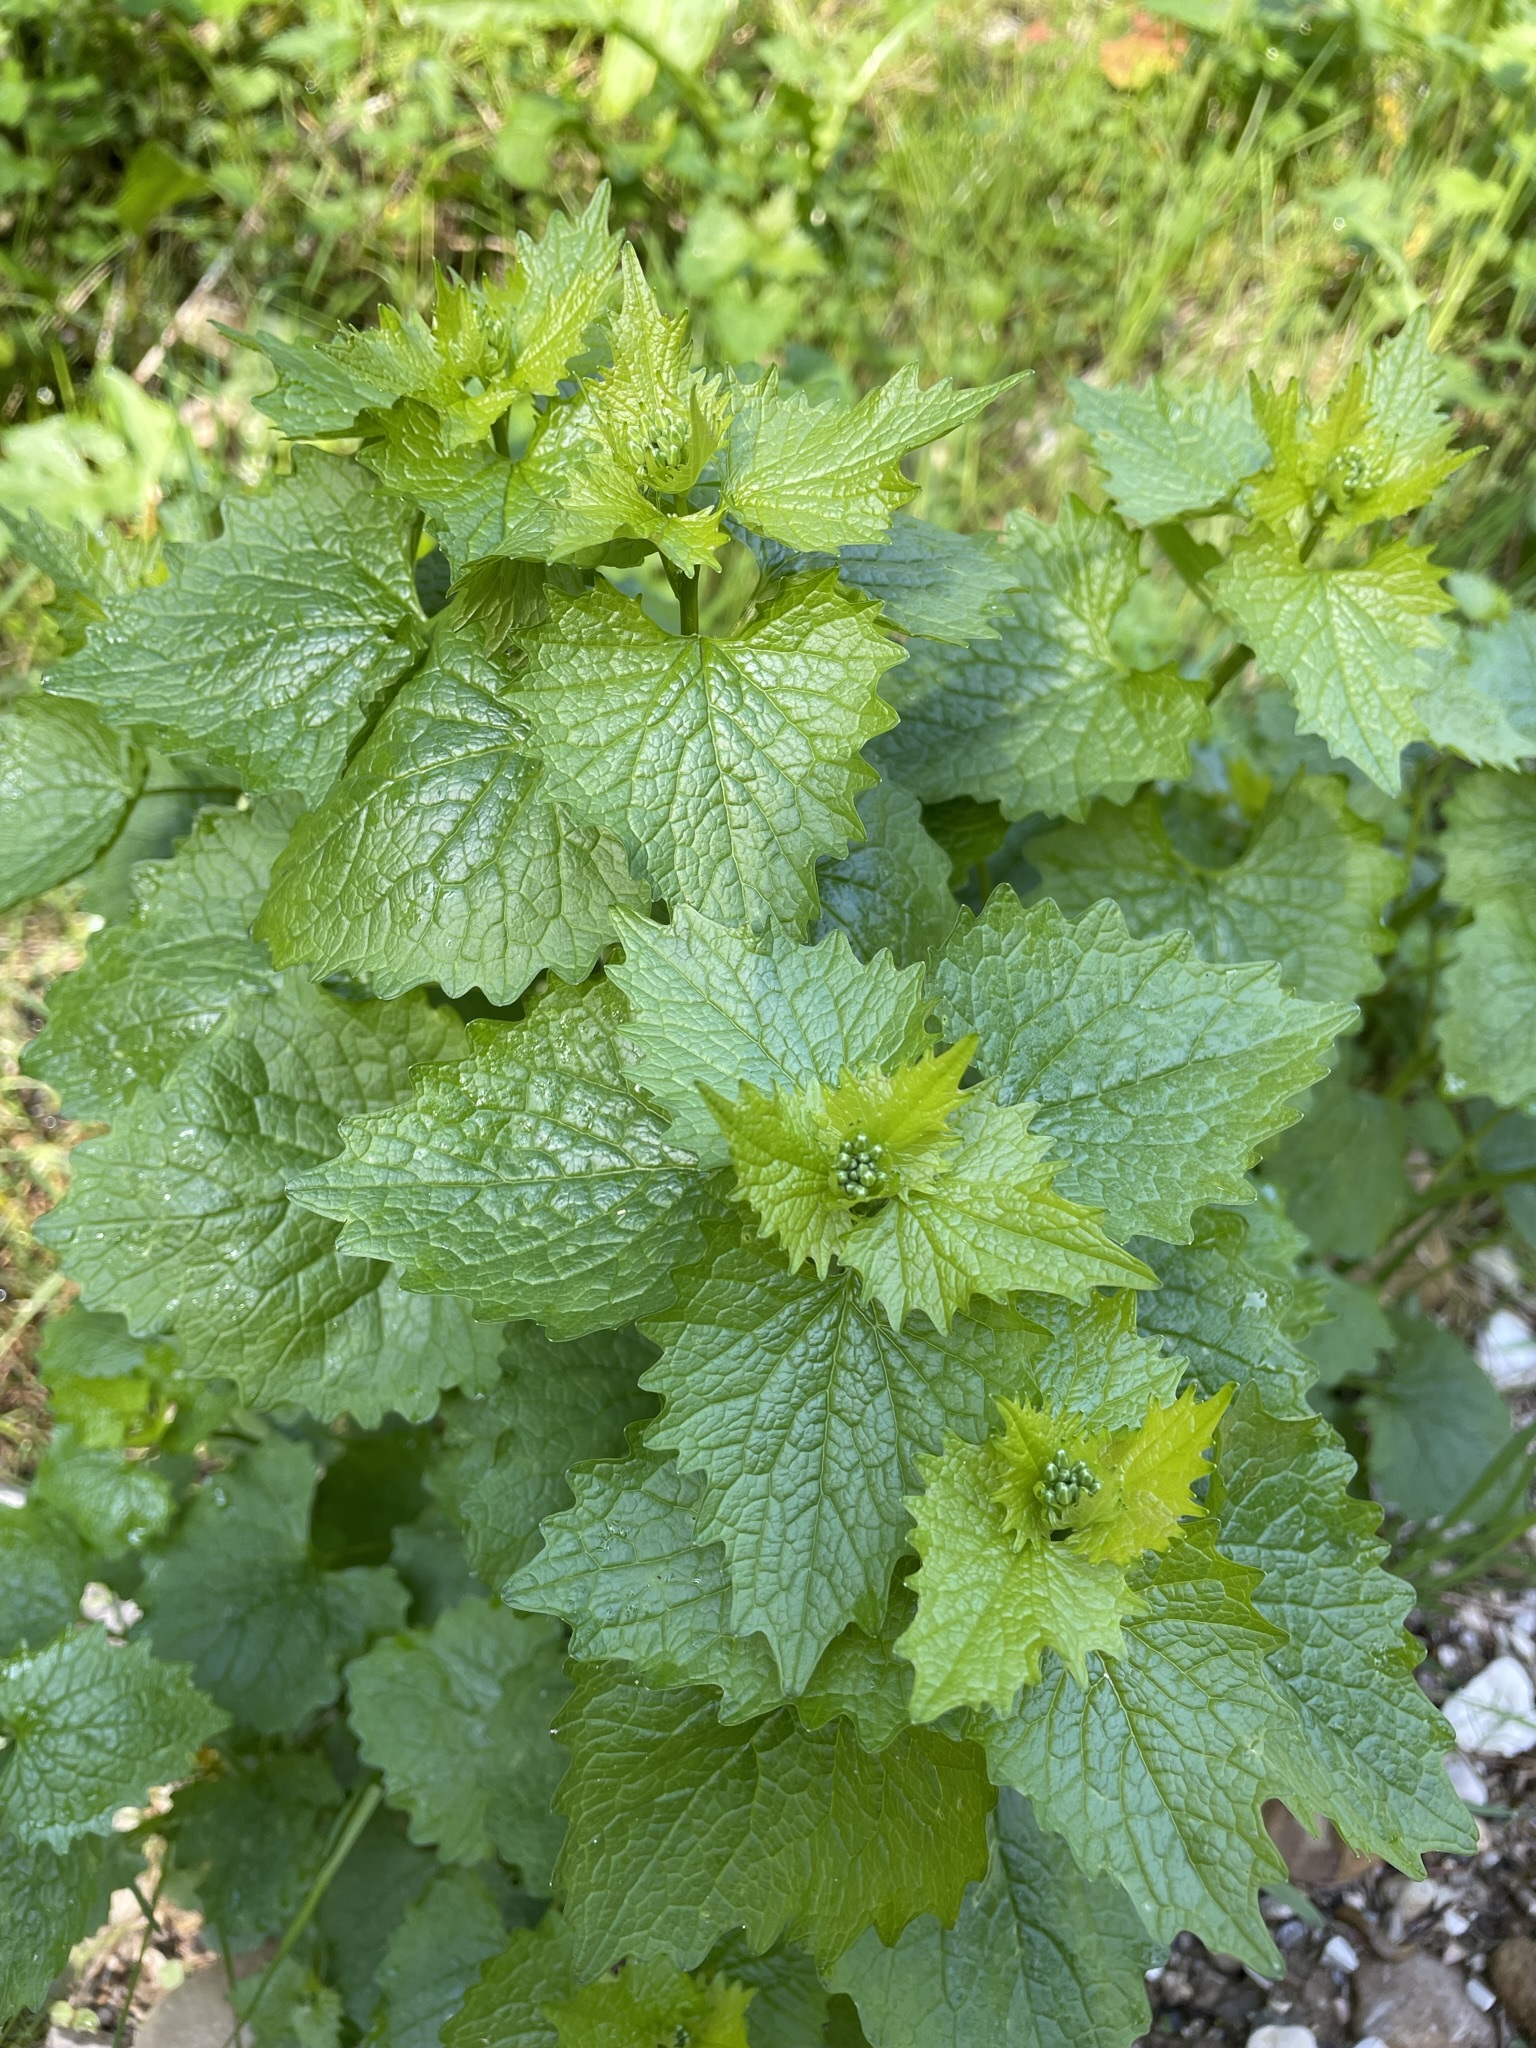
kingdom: Plantae
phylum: Tracheophyta
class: Magnoliopsida
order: Brassicales
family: Brassicaceae
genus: Alliaria
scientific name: Alliaria petiolata
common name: Garlic mustard
